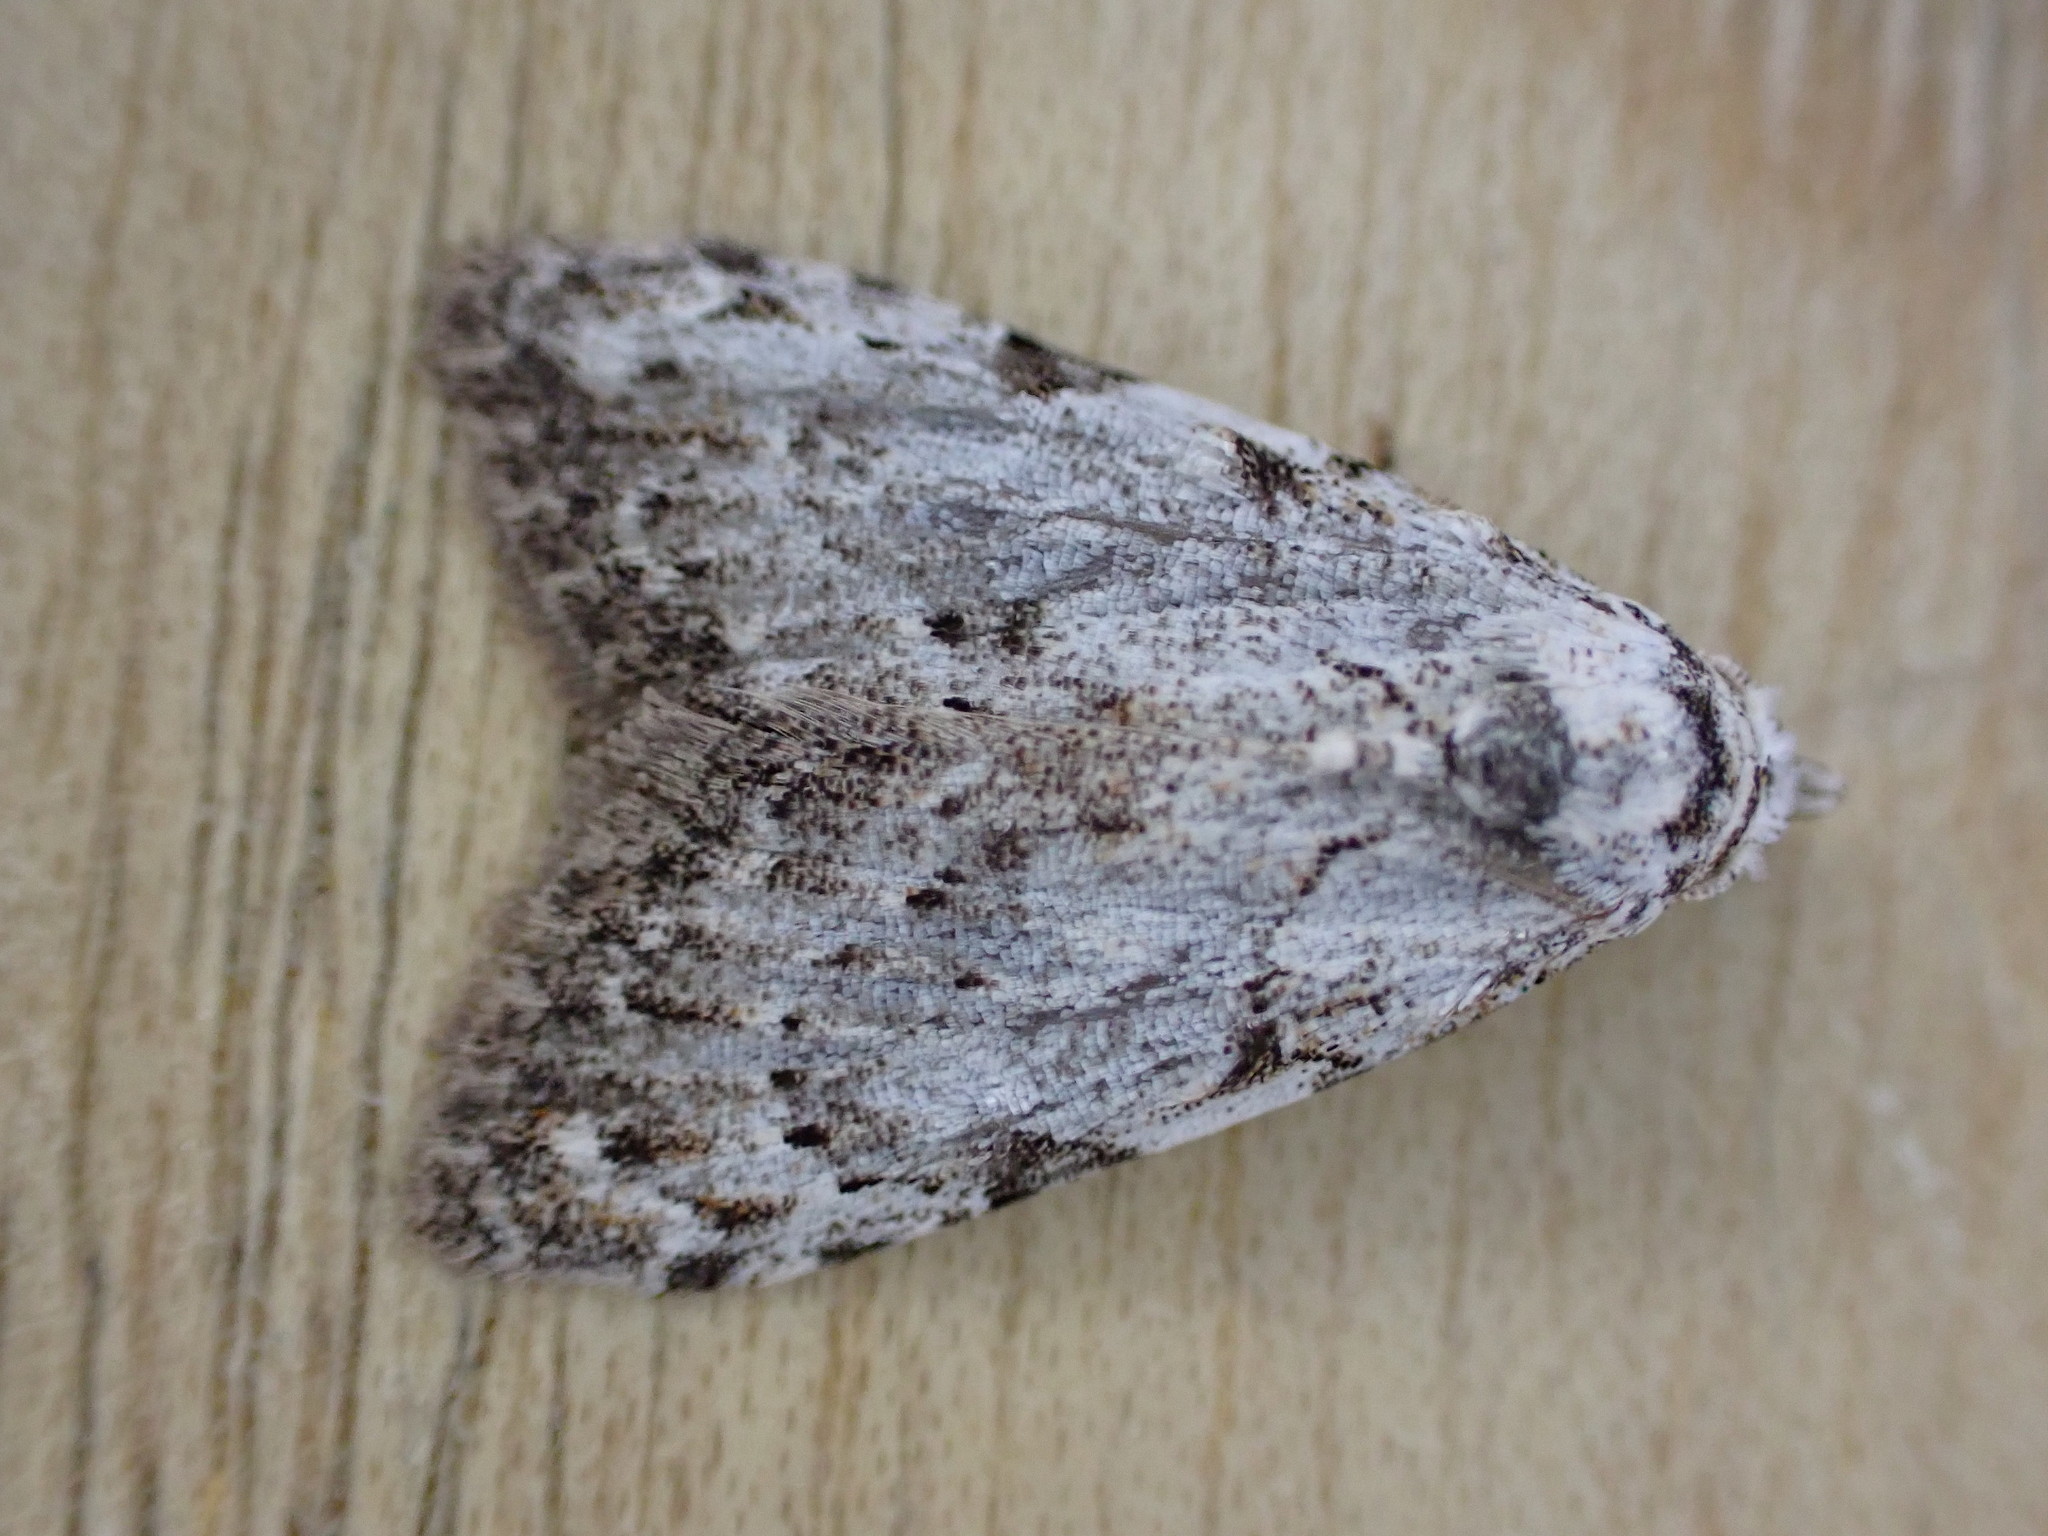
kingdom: Animalia
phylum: Arthropoda
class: Insecta
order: Lepidoptera
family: Nolidae
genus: Nola
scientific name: Nola confusalis
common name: Least black arches
